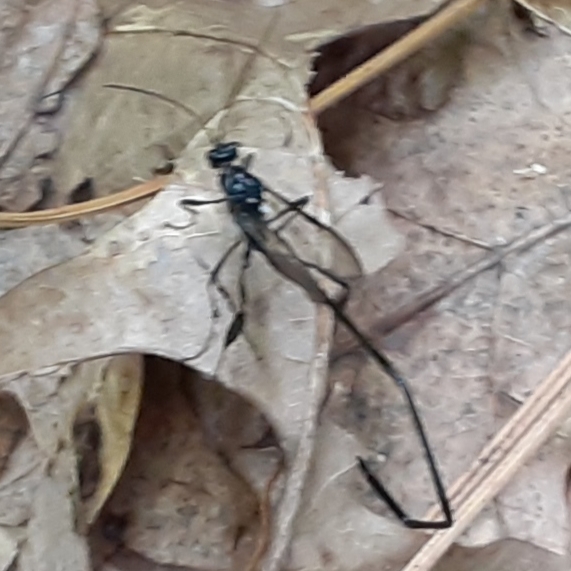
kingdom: Animalia
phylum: Arthropoda
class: Insecta
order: Hymenoptera
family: Pelecinidae
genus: Pelecinus
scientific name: Pelecinus polyturator
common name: American pelecinid wasp
